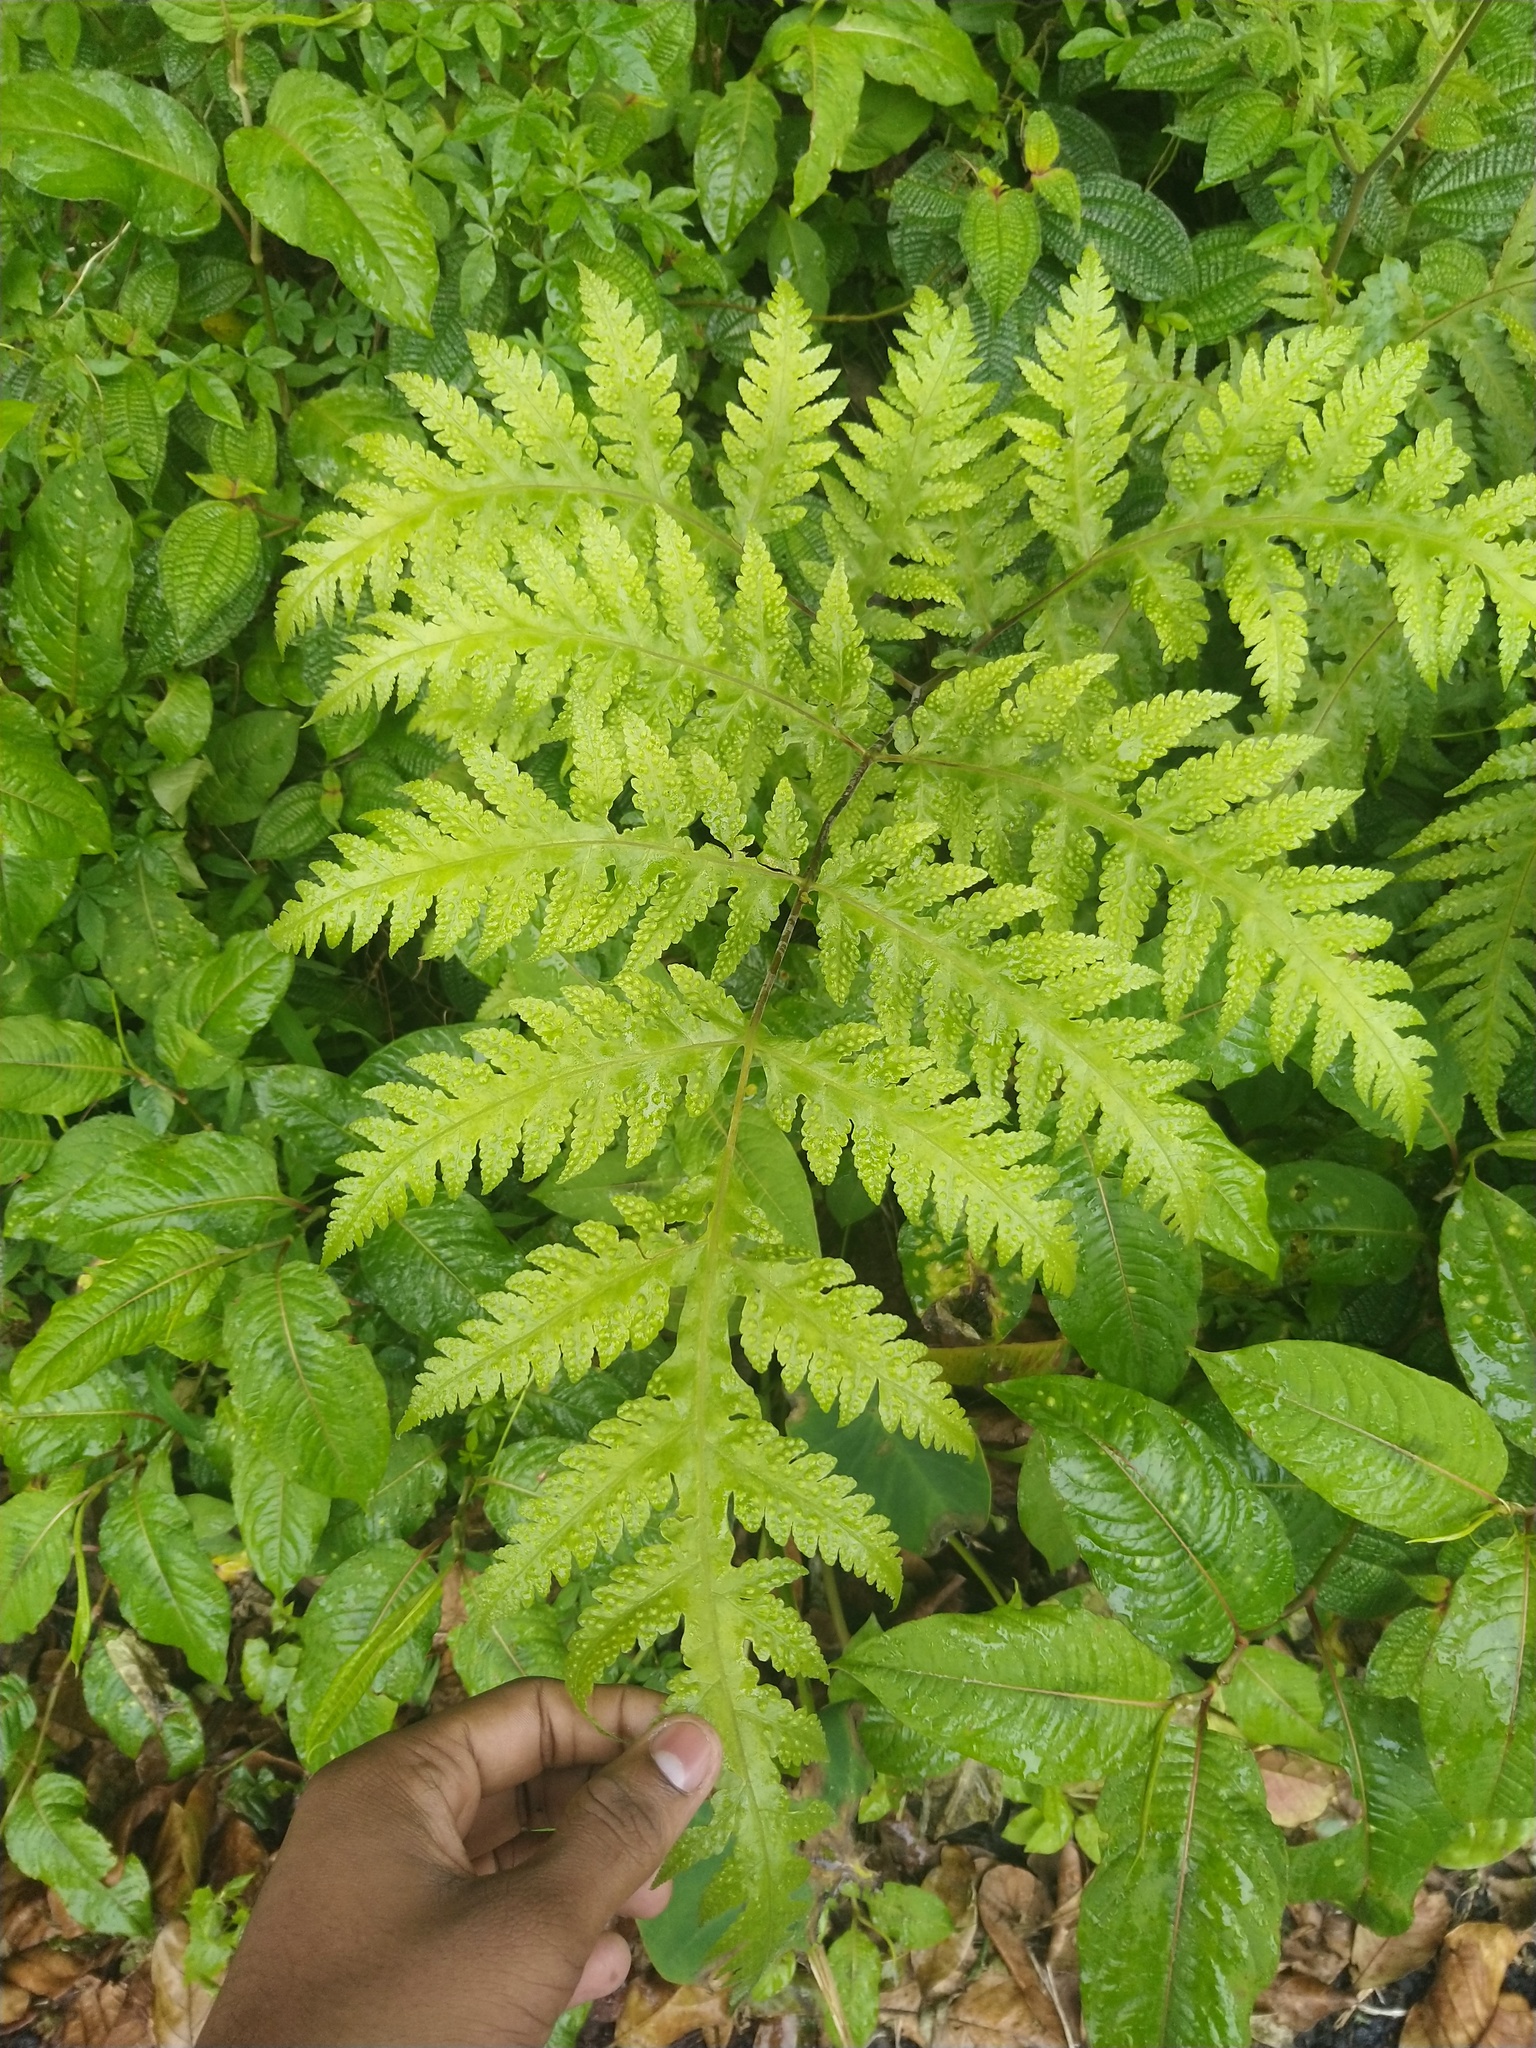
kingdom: Plantae
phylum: Tracheophyta
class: Polypodiopsida
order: Polypodiales
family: Tectariaceae
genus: Tectaria
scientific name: Tectaria membranacea
